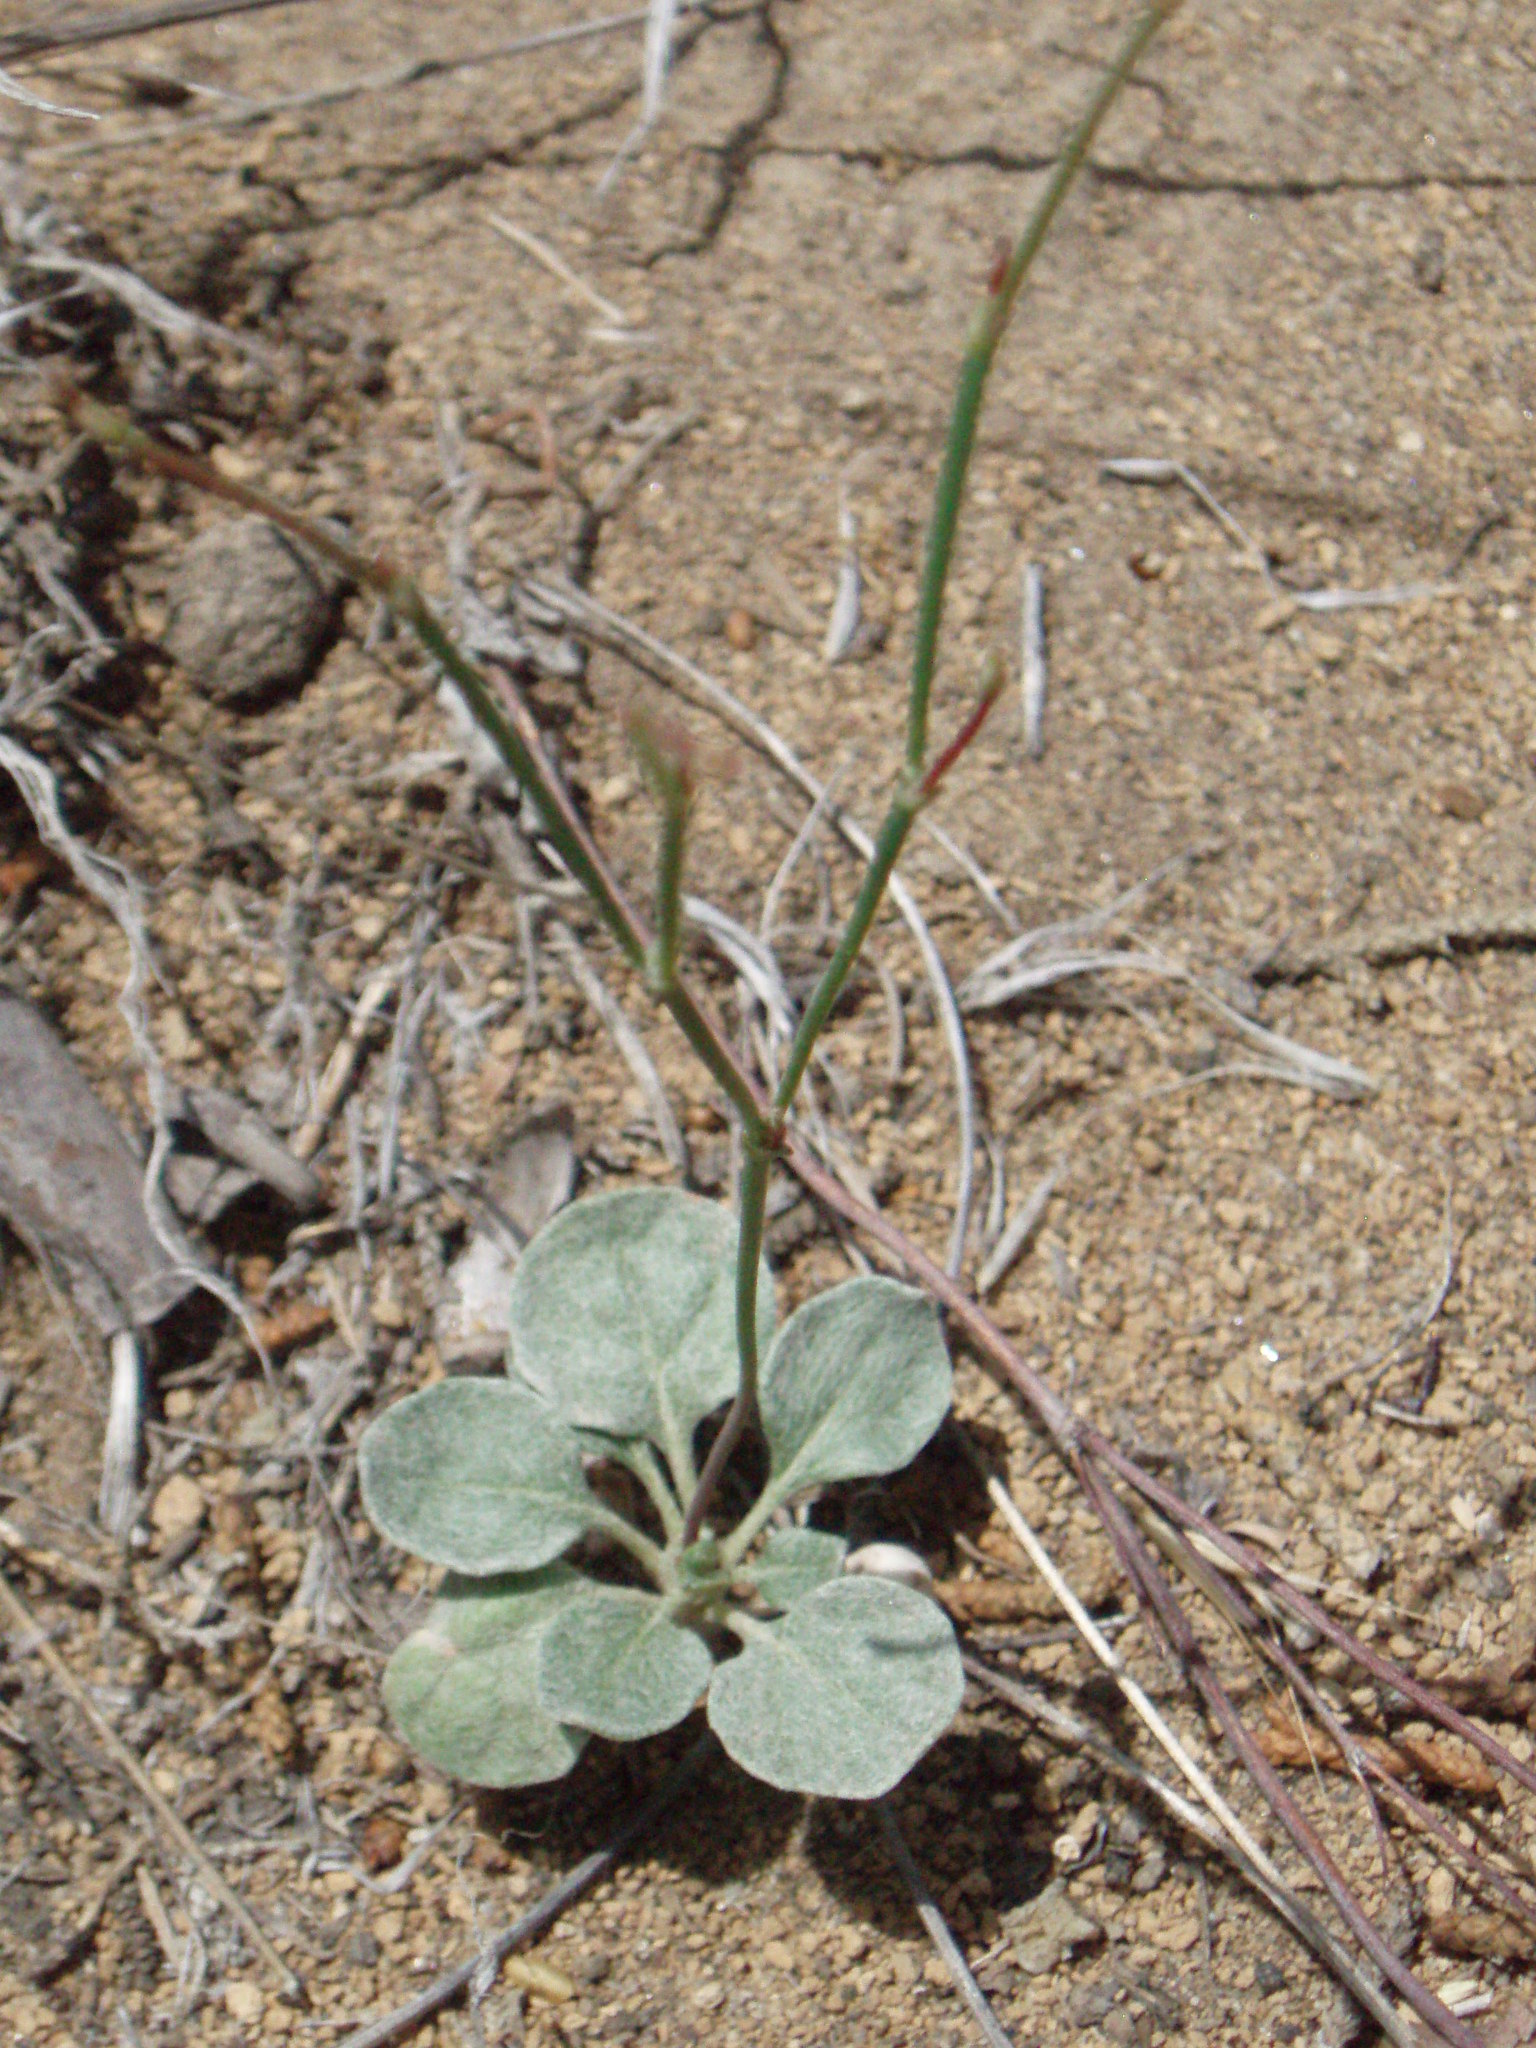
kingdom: Plantae
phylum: Tracheophyta
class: Magnoliopsida
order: Caryophyllales
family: Polygonaceae
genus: Eriogonum
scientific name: Eriogonum vimineum
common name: Wicker buckwheat
